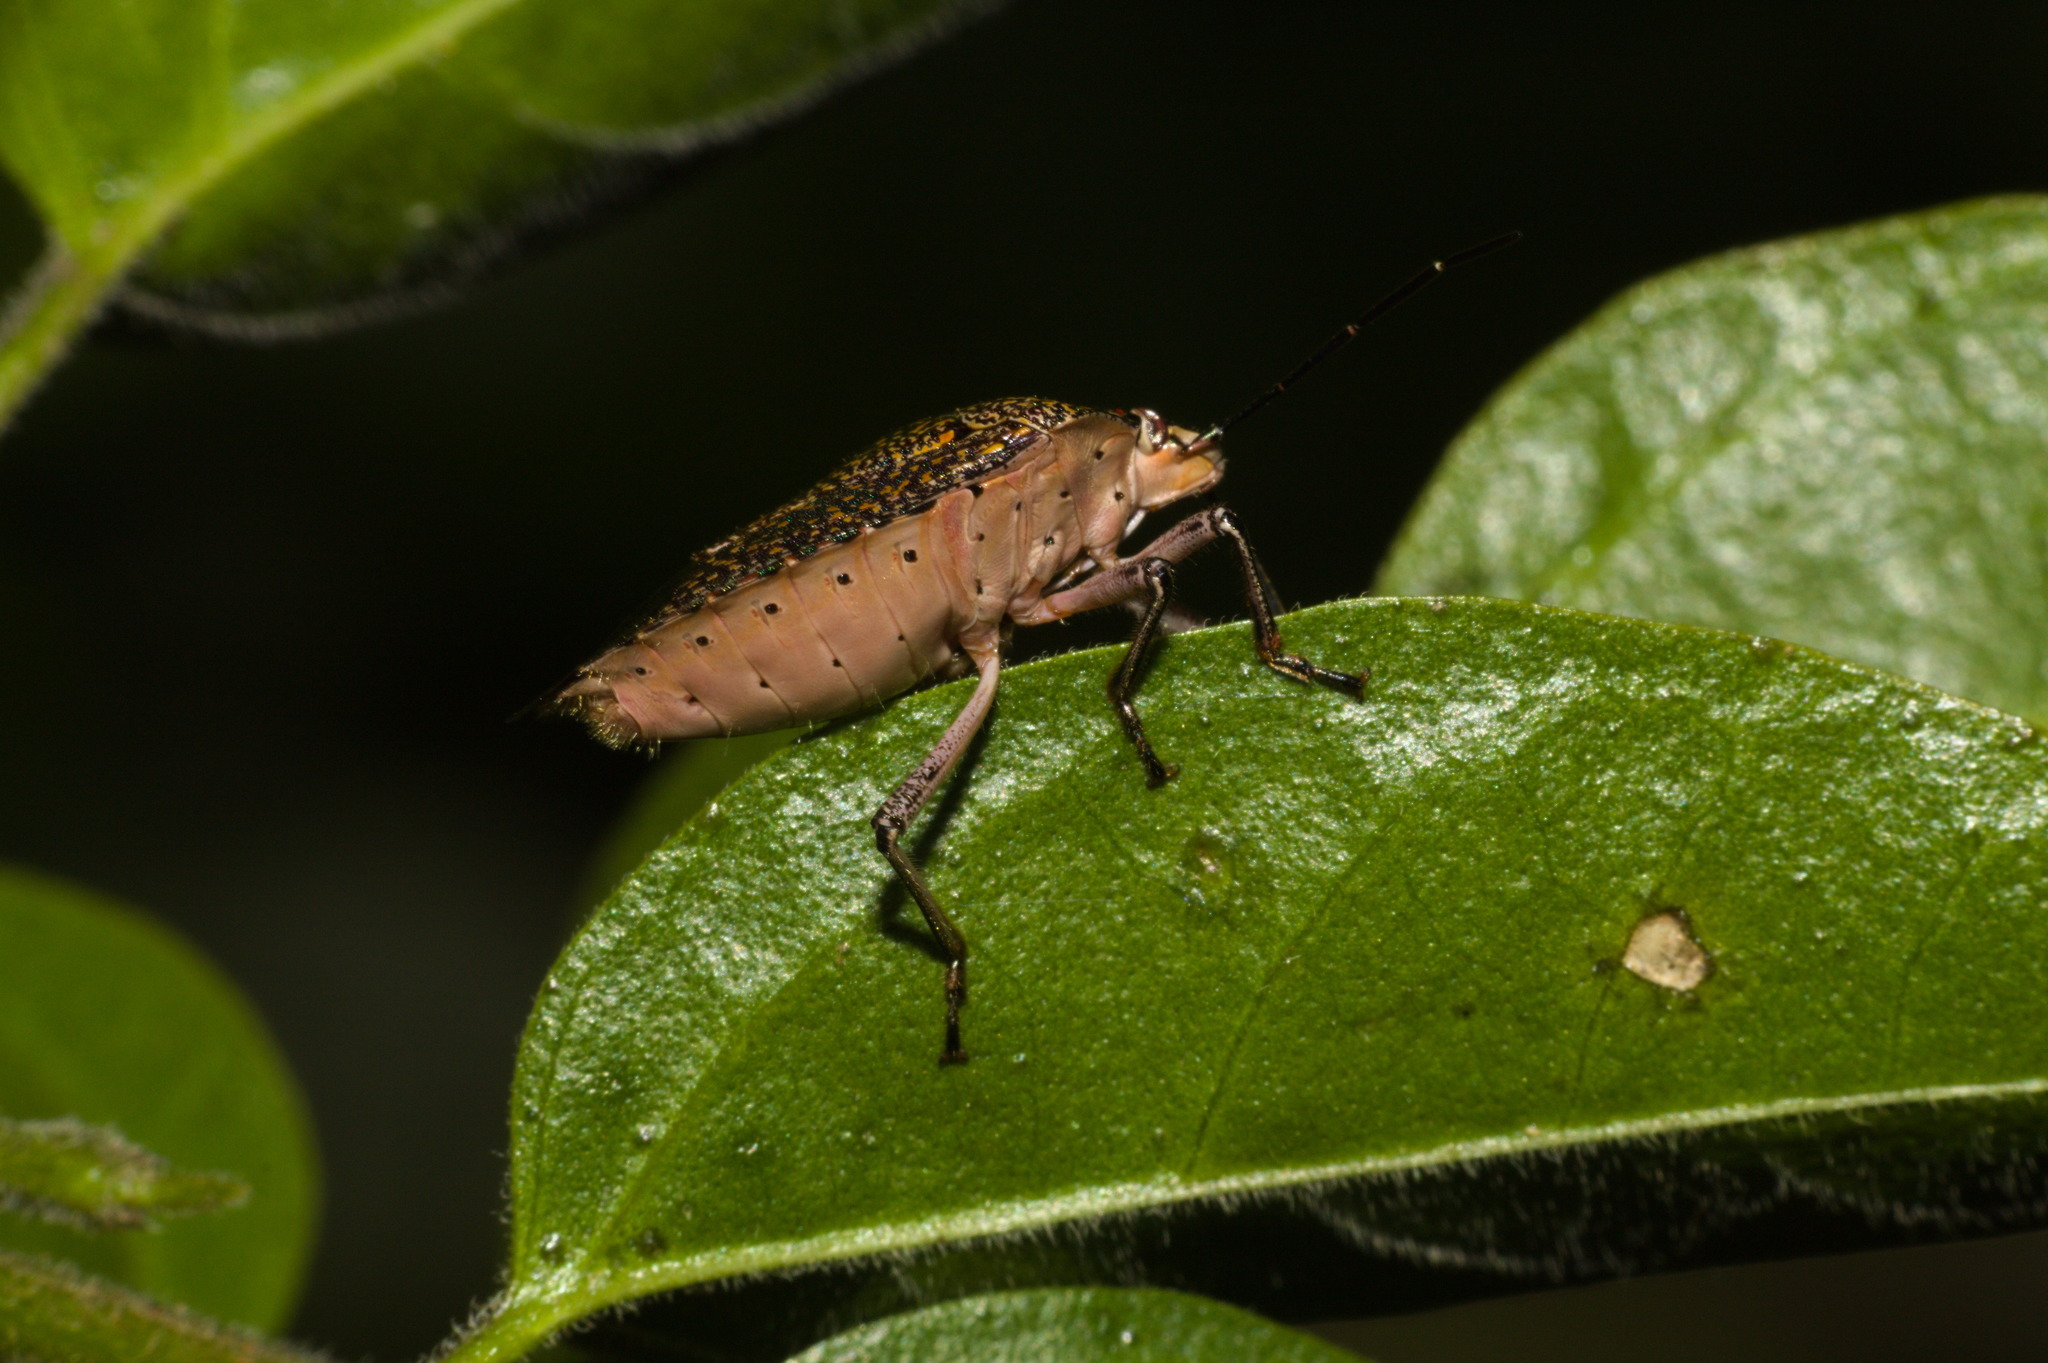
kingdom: Animalia
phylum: Arthropoda
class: Insecta
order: Hemiptera
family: Pentatomidae
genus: Pellaea
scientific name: Pellaea stictica
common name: Stink bug
